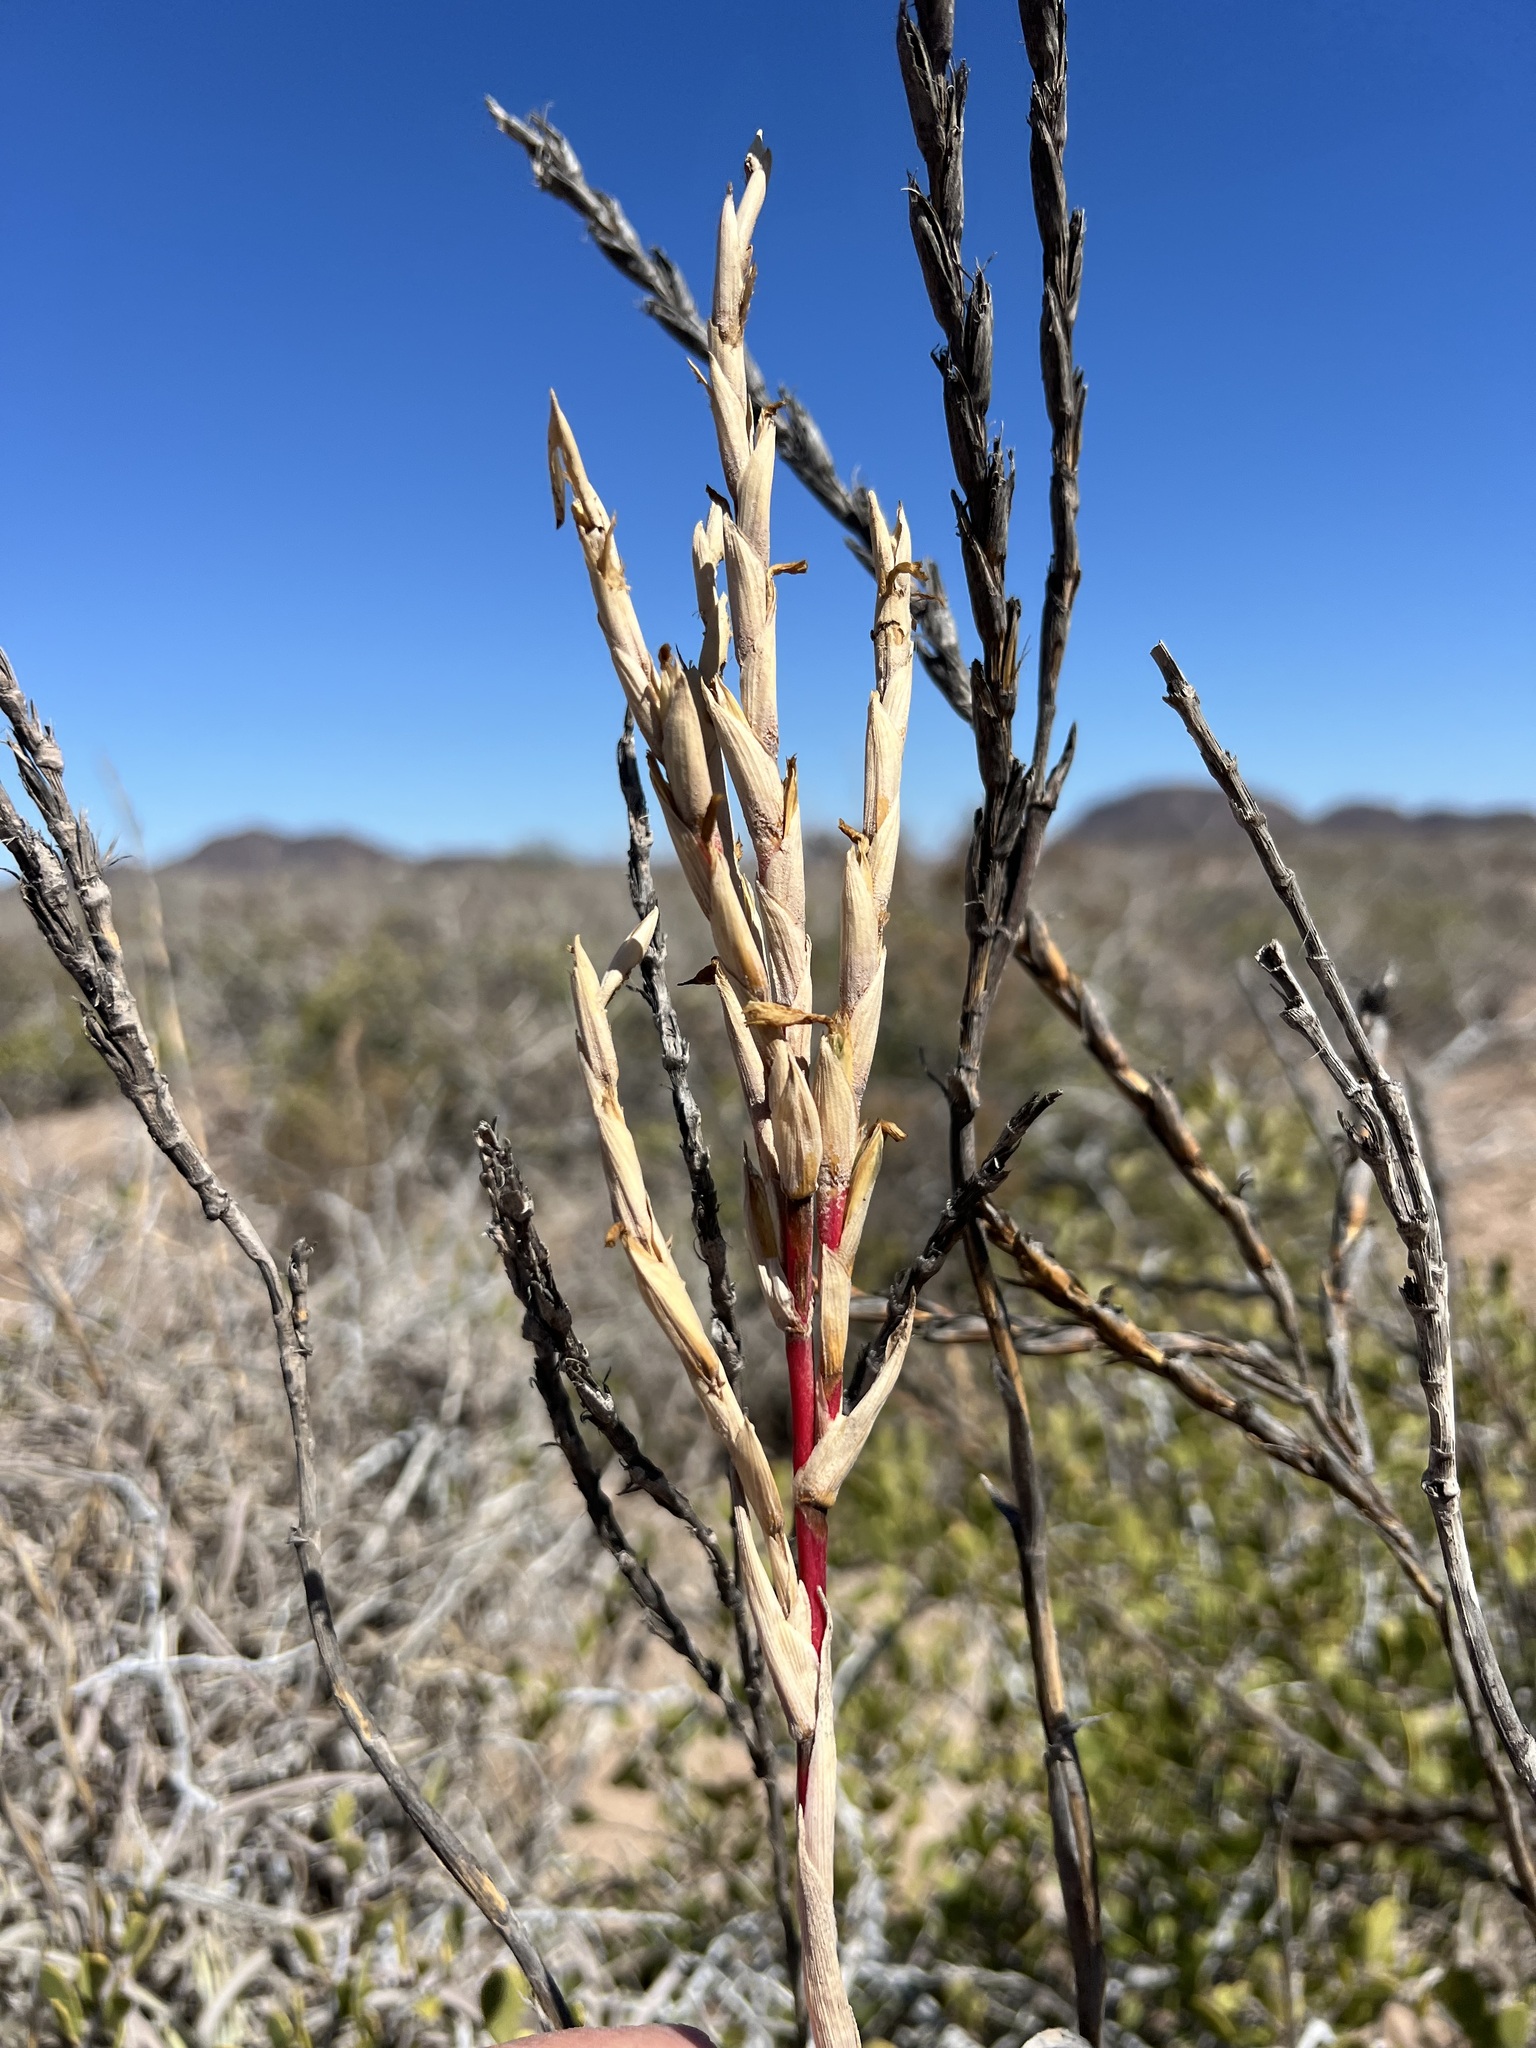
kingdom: Plantae
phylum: Tracheophyta
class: Liliopsida
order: Poales
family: Bromeliaceae
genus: Tillandsia
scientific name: Tillandsia exserta
